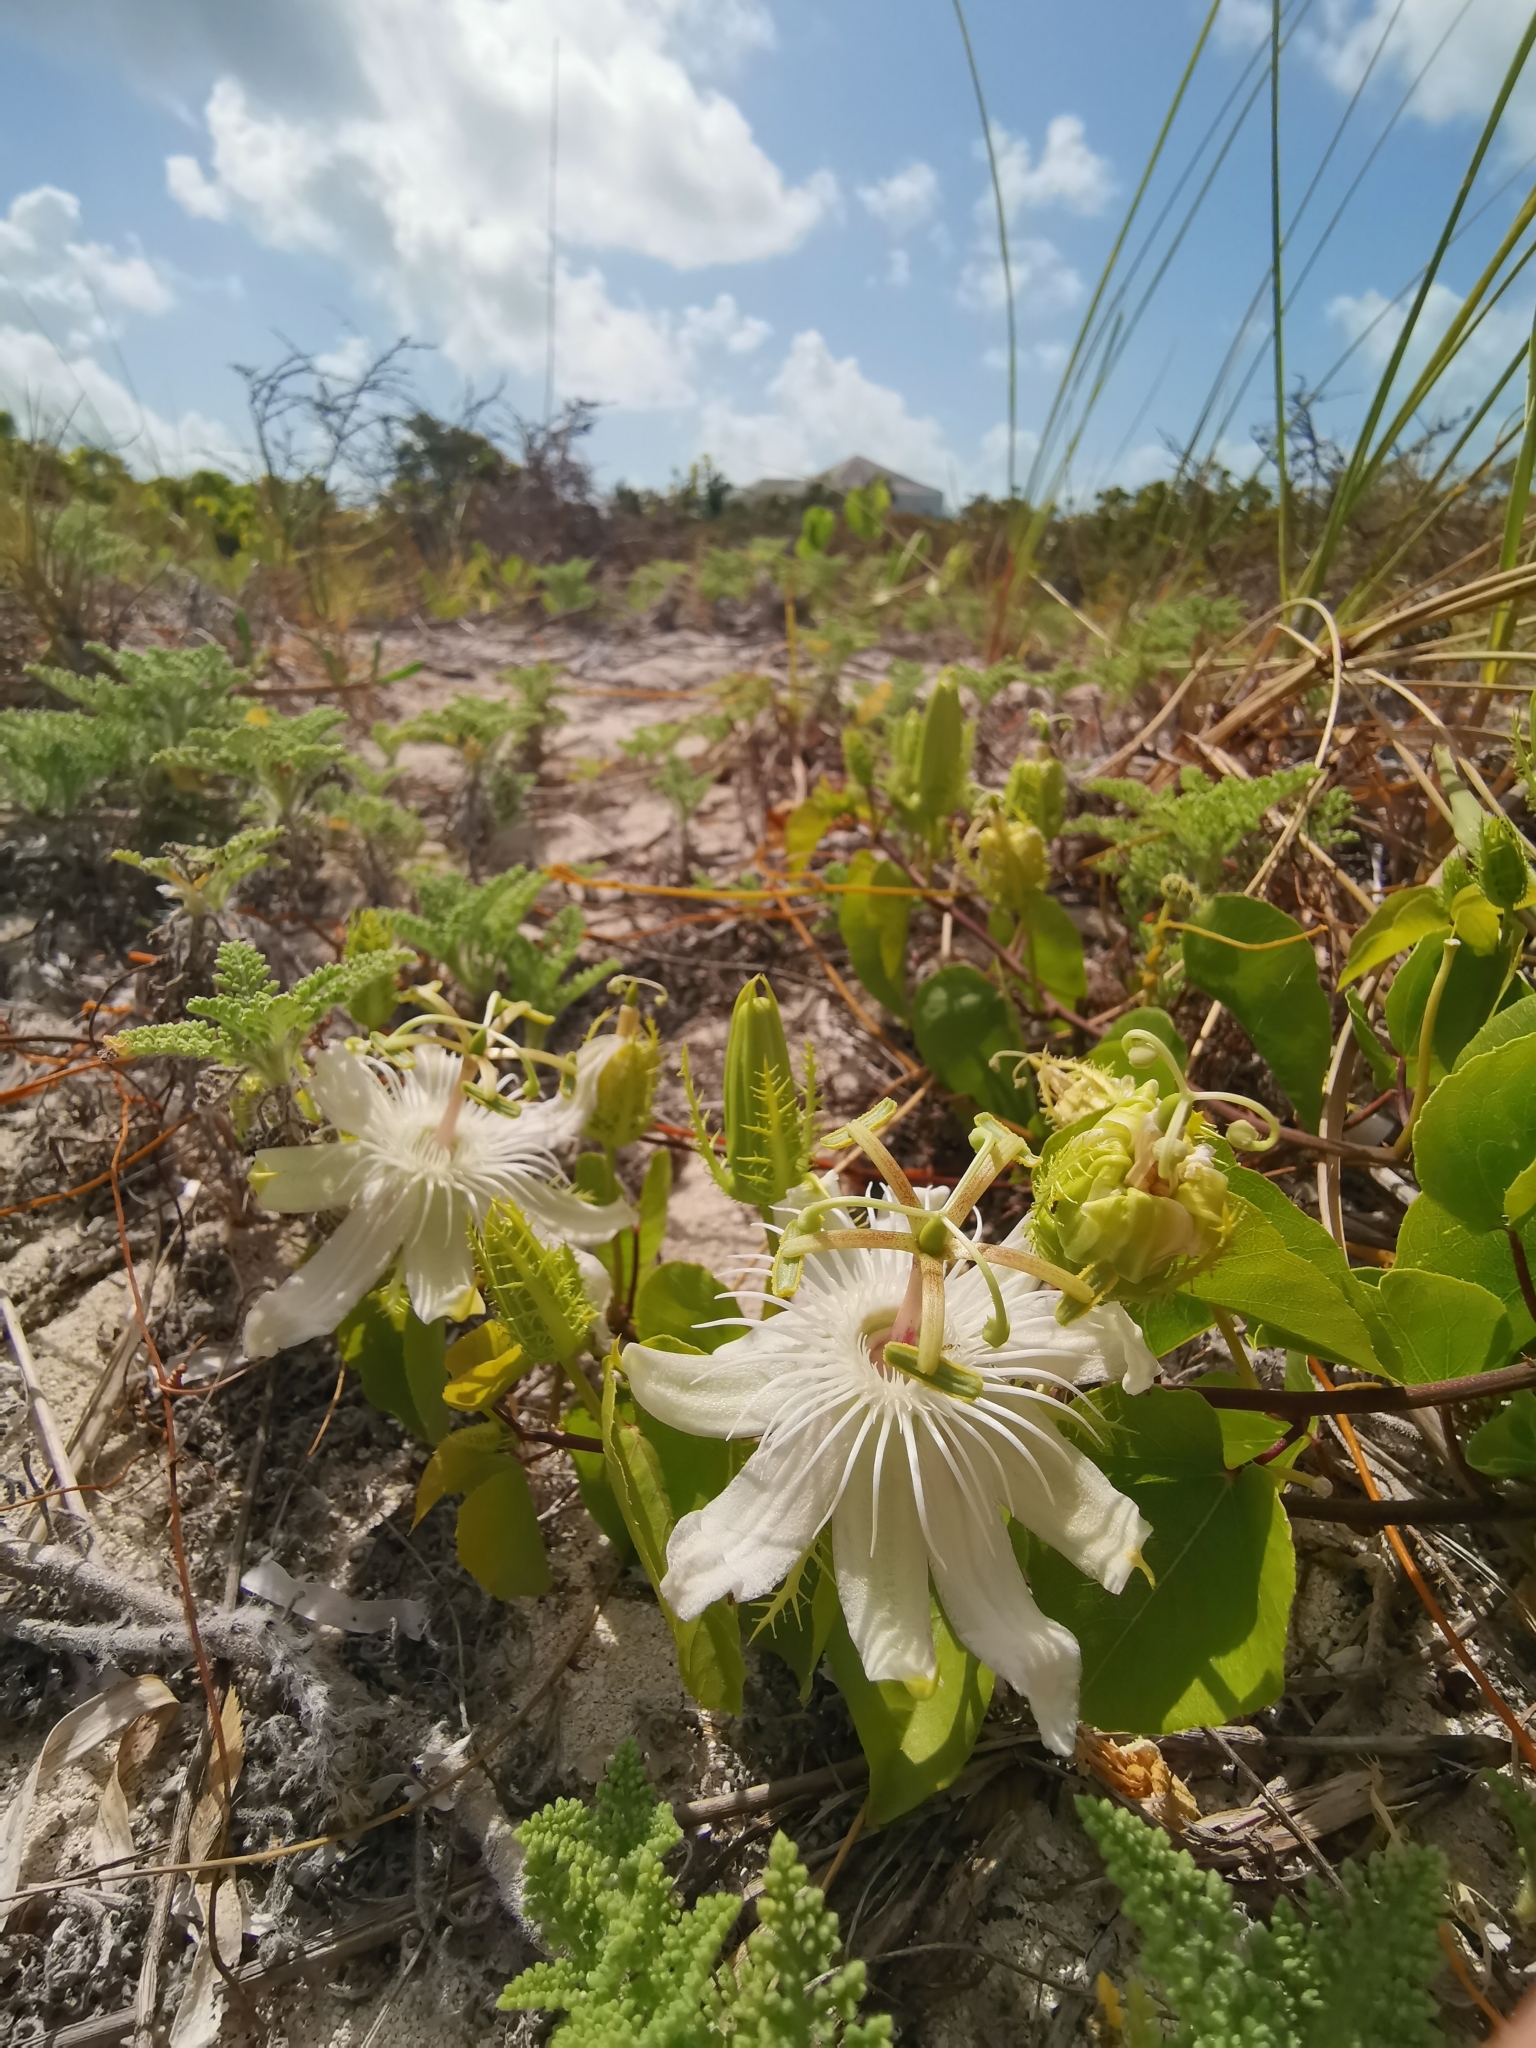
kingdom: Plantae
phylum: Tracheophyta
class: Magnoliopsida
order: Malpighiales
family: Passifloraceae
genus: Passiflora
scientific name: Passiflora pectinata
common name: White passionflower
